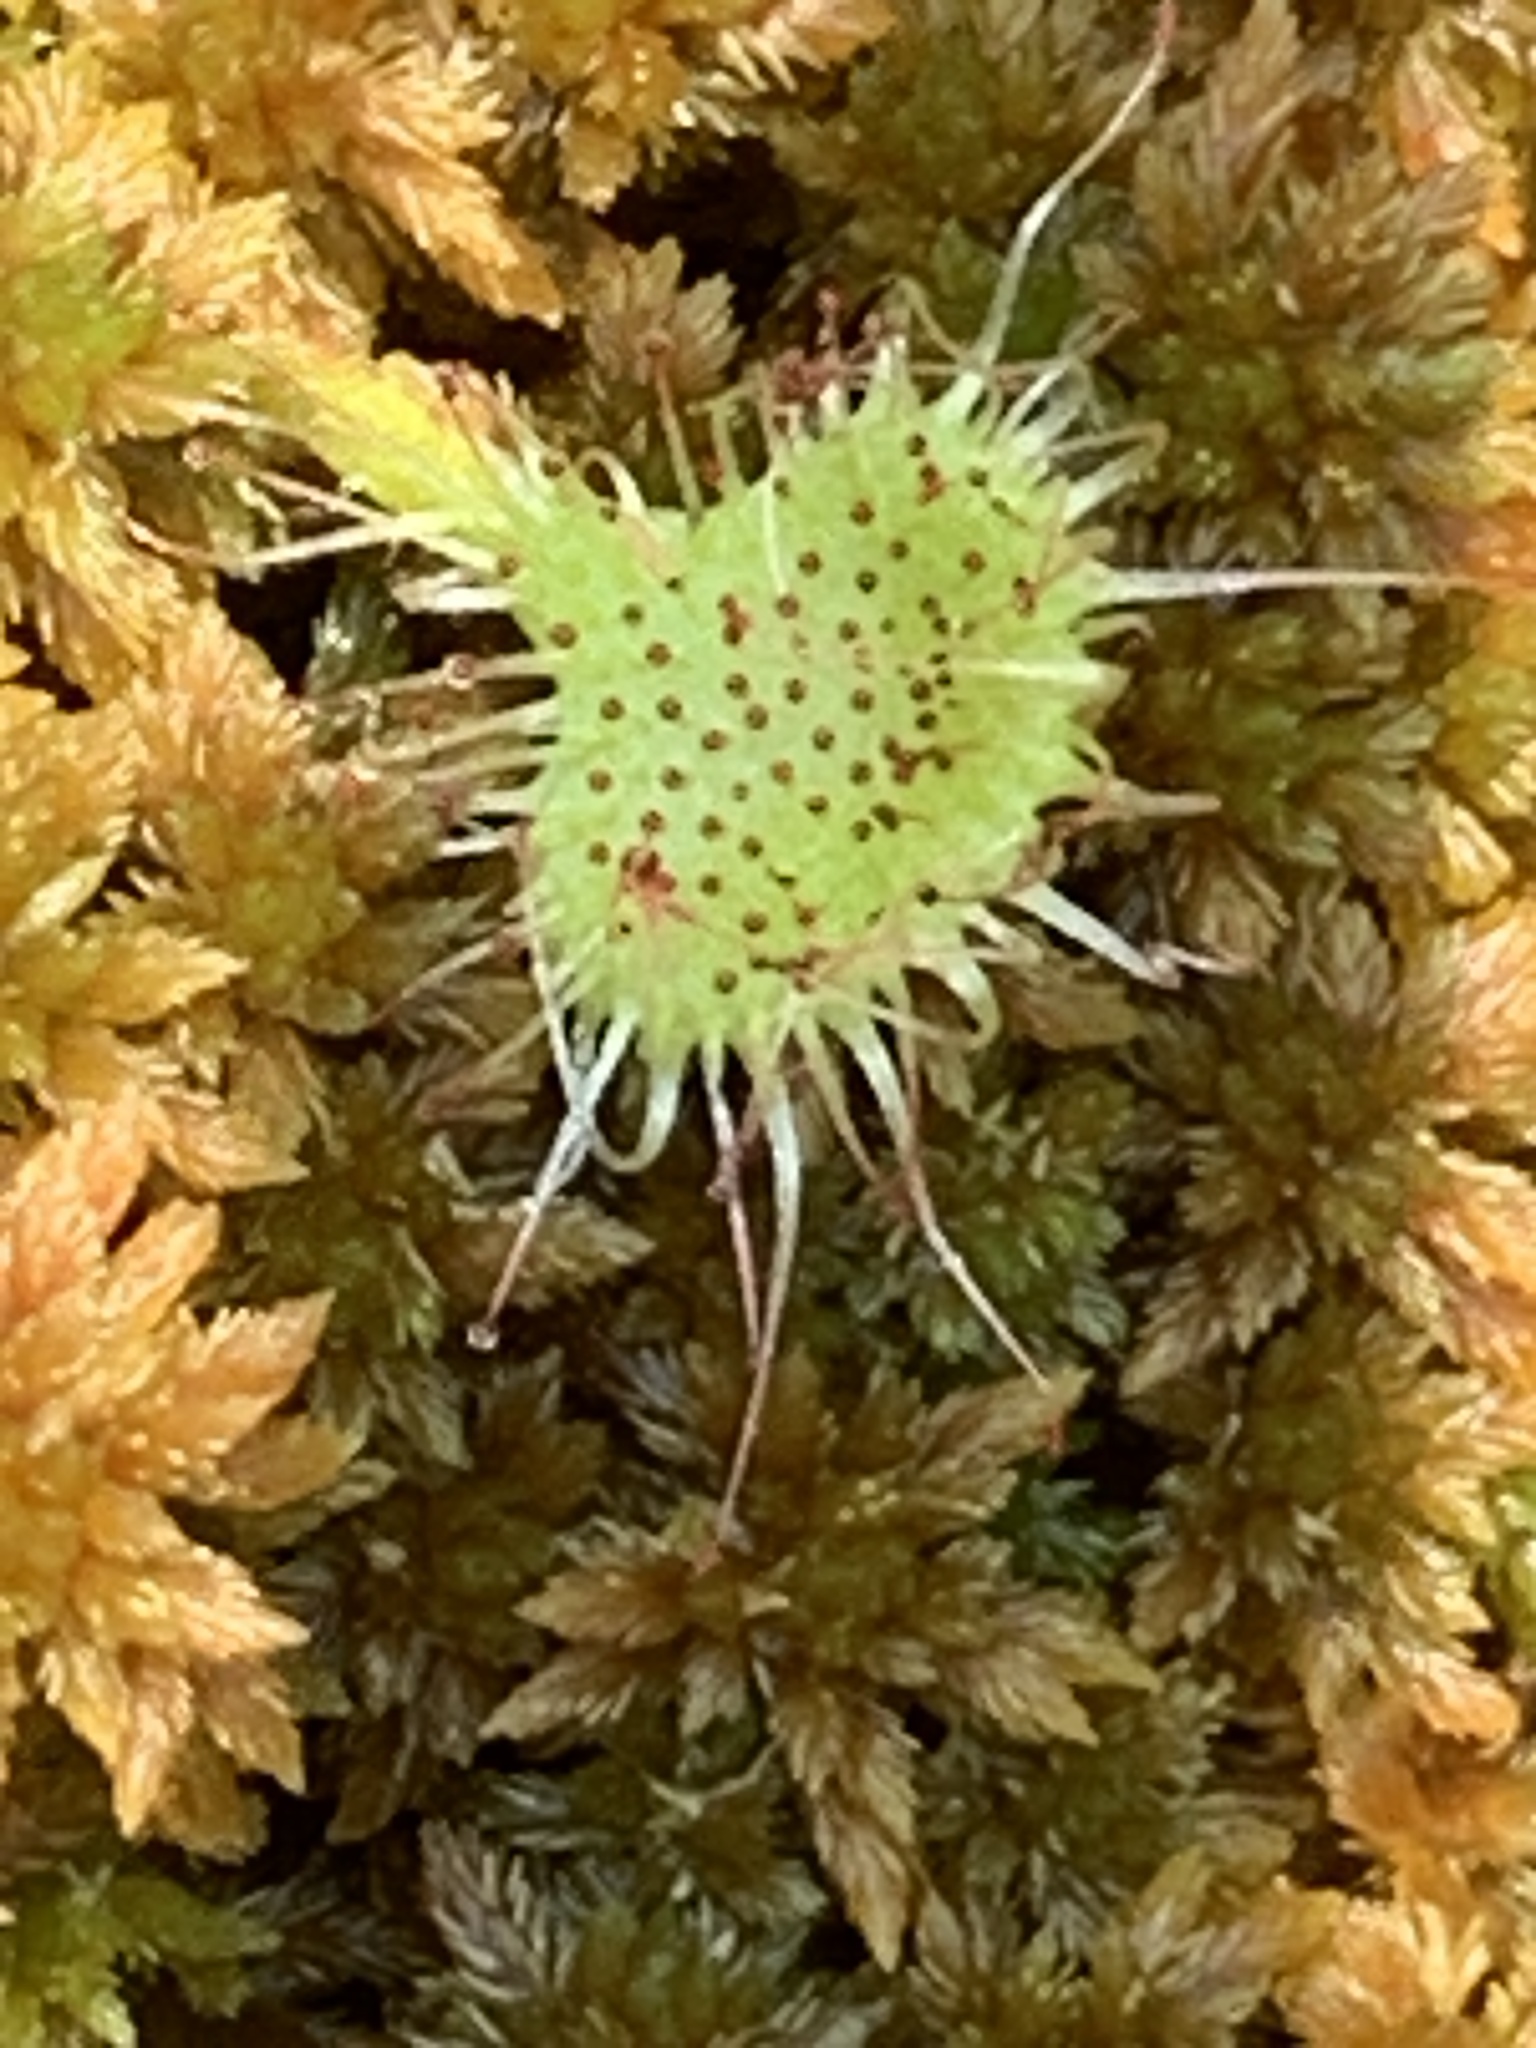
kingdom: Plantae
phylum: Tracheophyta
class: Magnoliopsida
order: Caryophyllales
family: Droseraceae
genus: Drosera
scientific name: Drosera rotundifolia
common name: Round-leaved sundew
